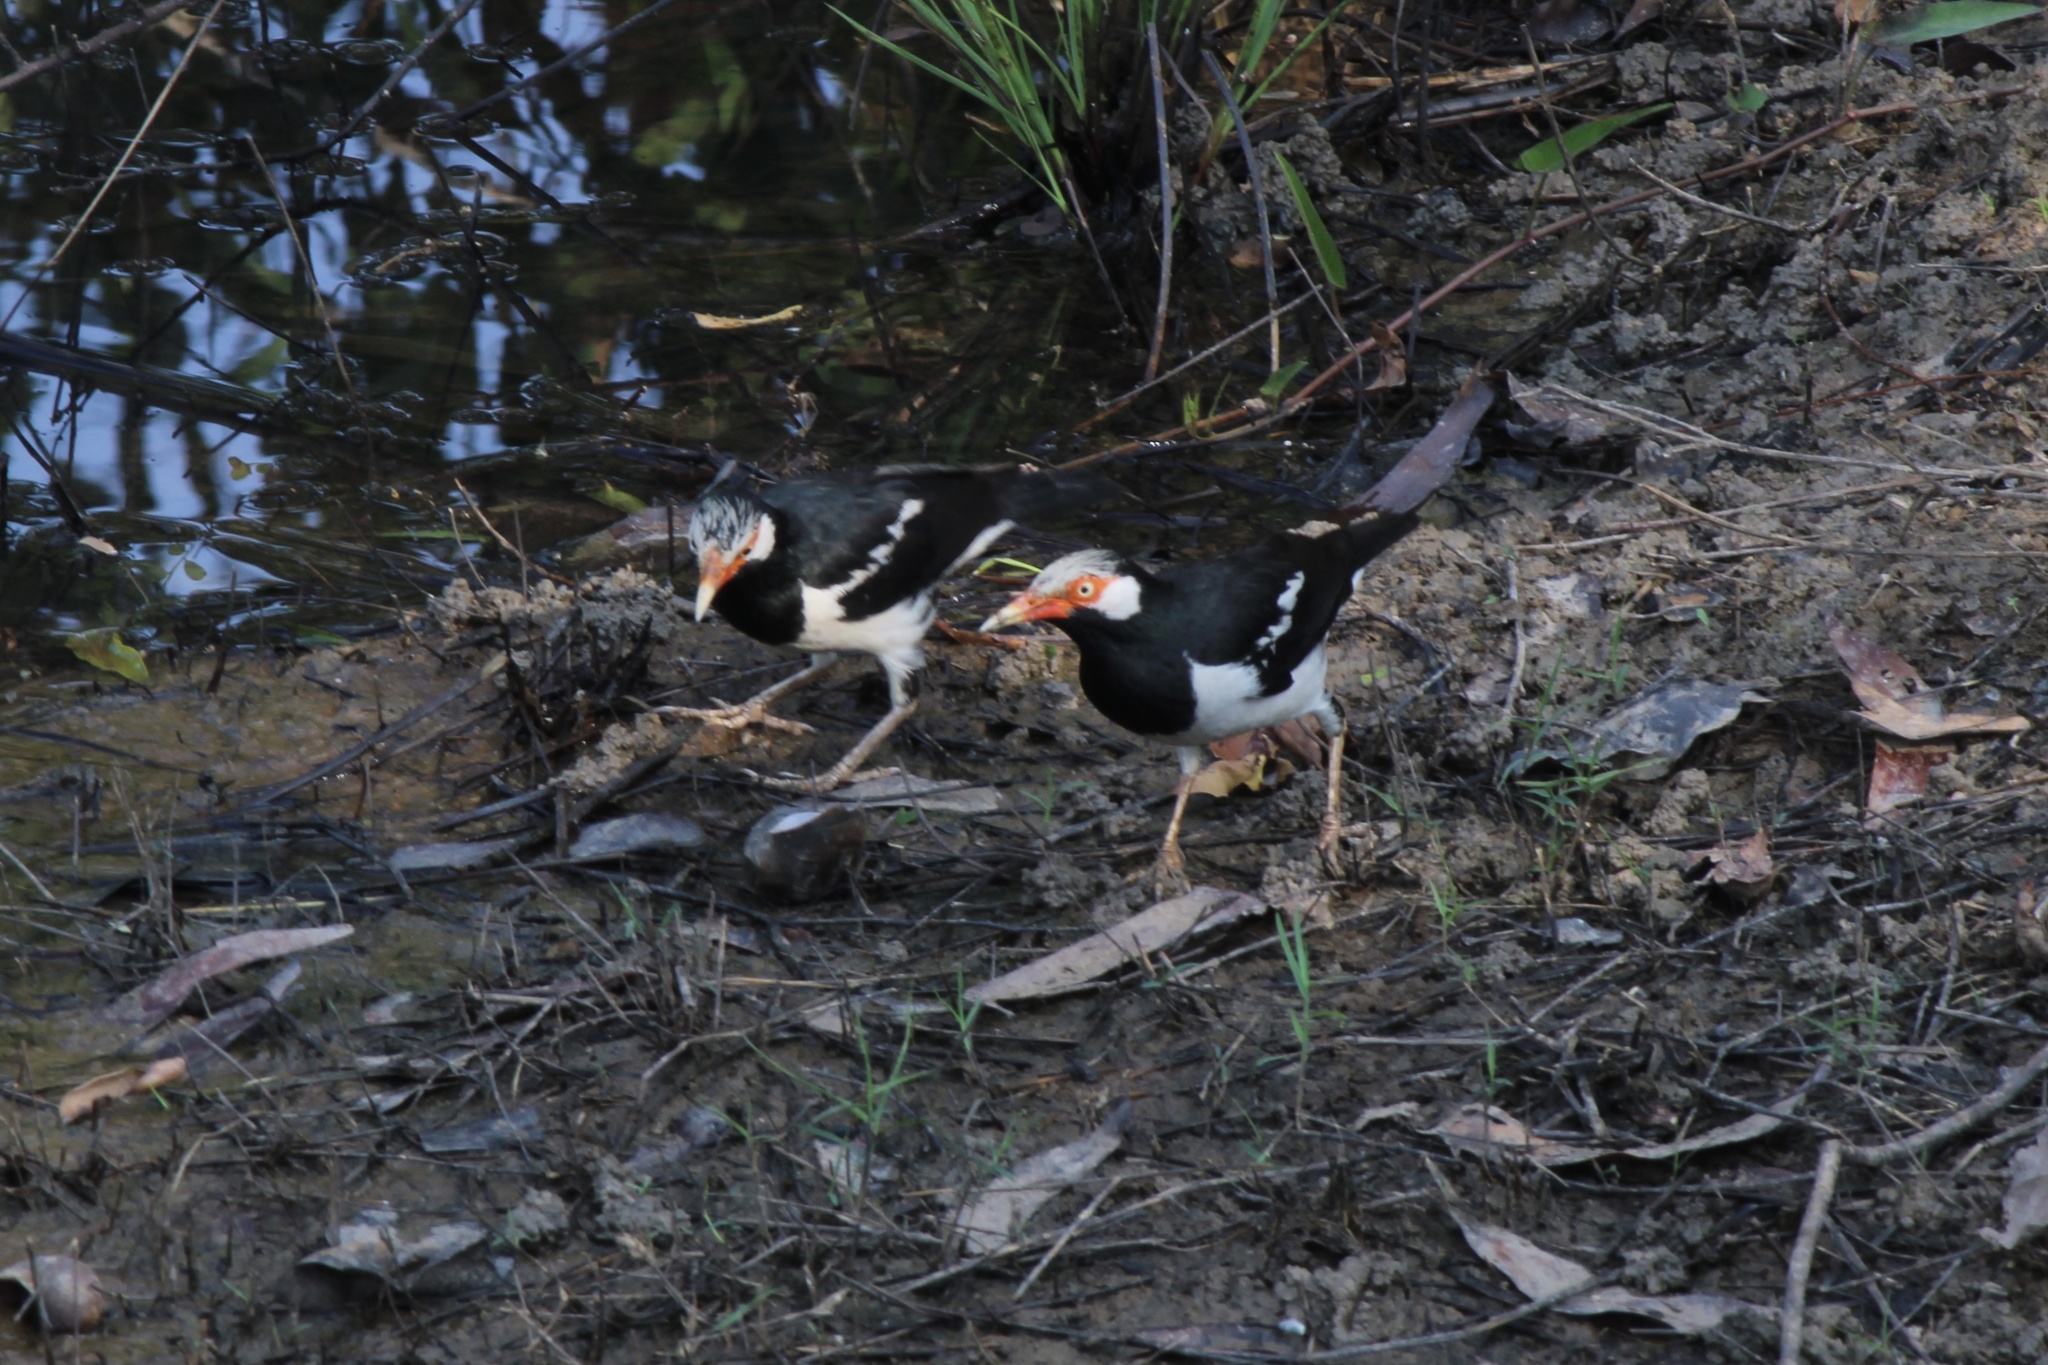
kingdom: Animalia
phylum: Chordata
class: Aves
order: Passeriformes
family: Sturnidae
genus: Gracupica
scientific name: Gracupica contra
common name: Pied myna
